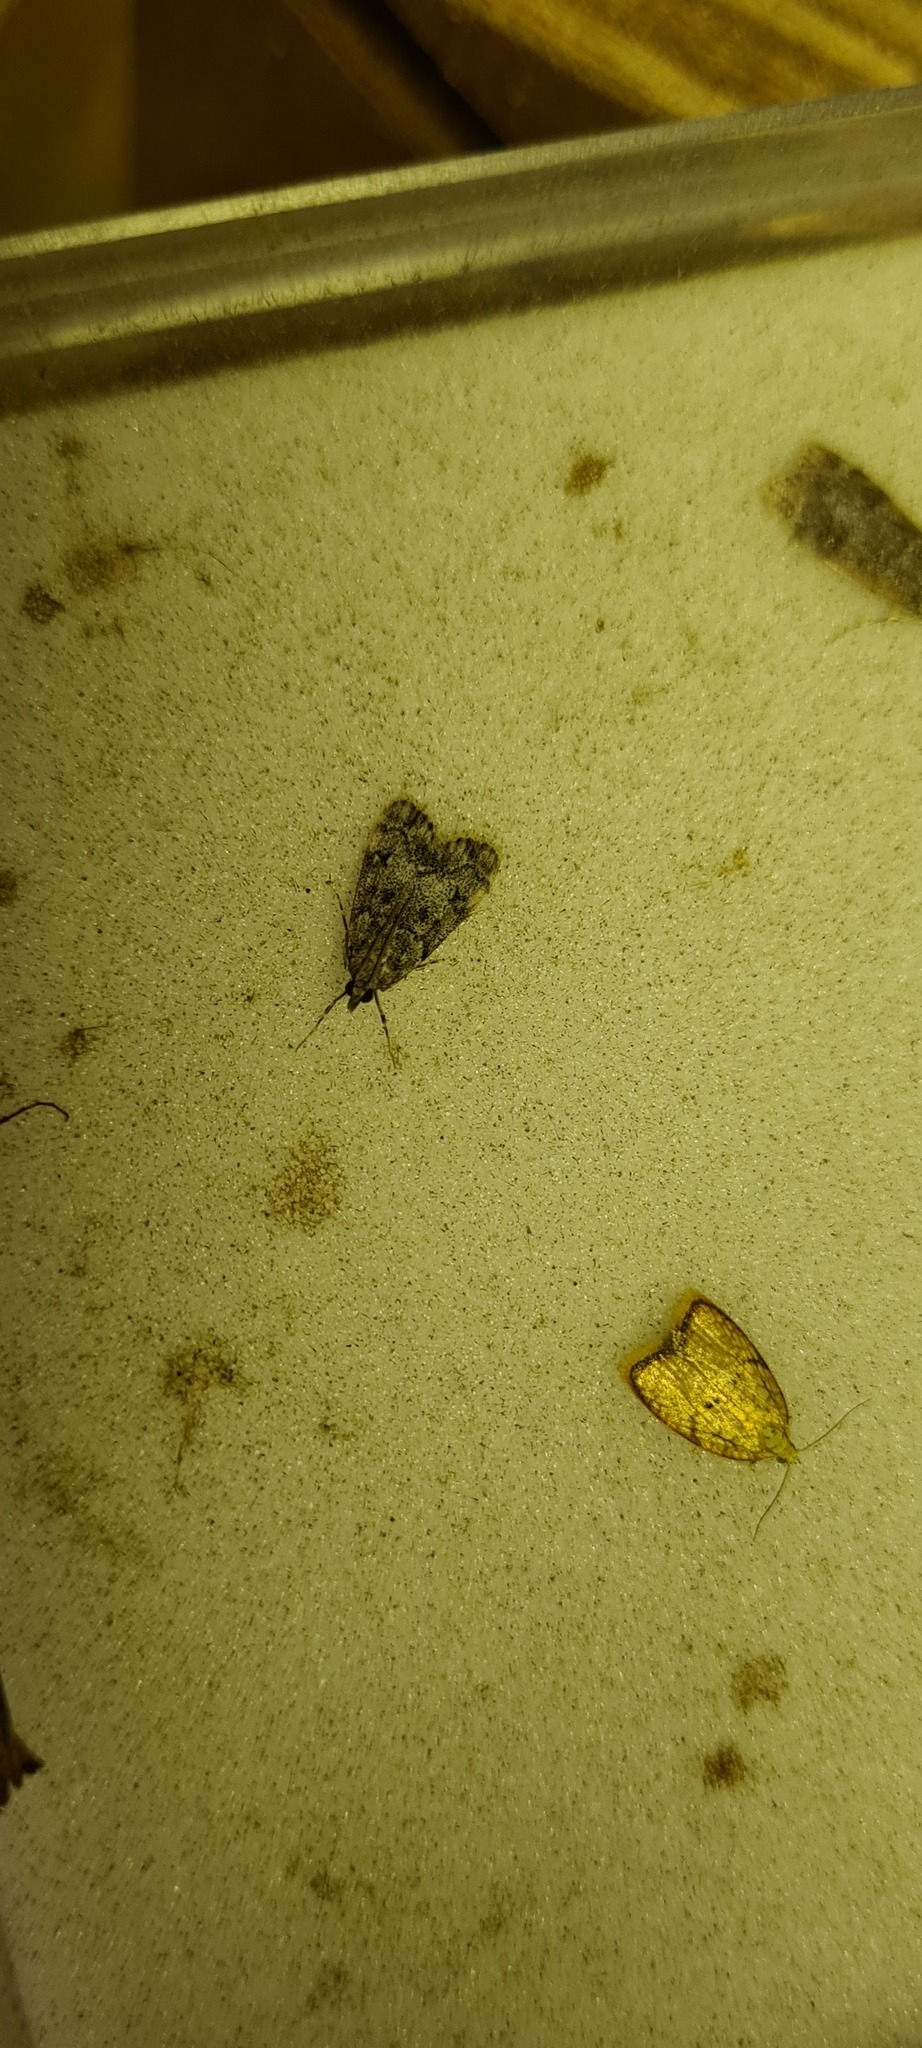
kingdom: Animalia
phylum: Arthropoda
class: Insecta
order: Lepidoptera
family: Crambidae
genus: Eudonia
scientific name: Eudonia lacustrata
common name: Little grey
